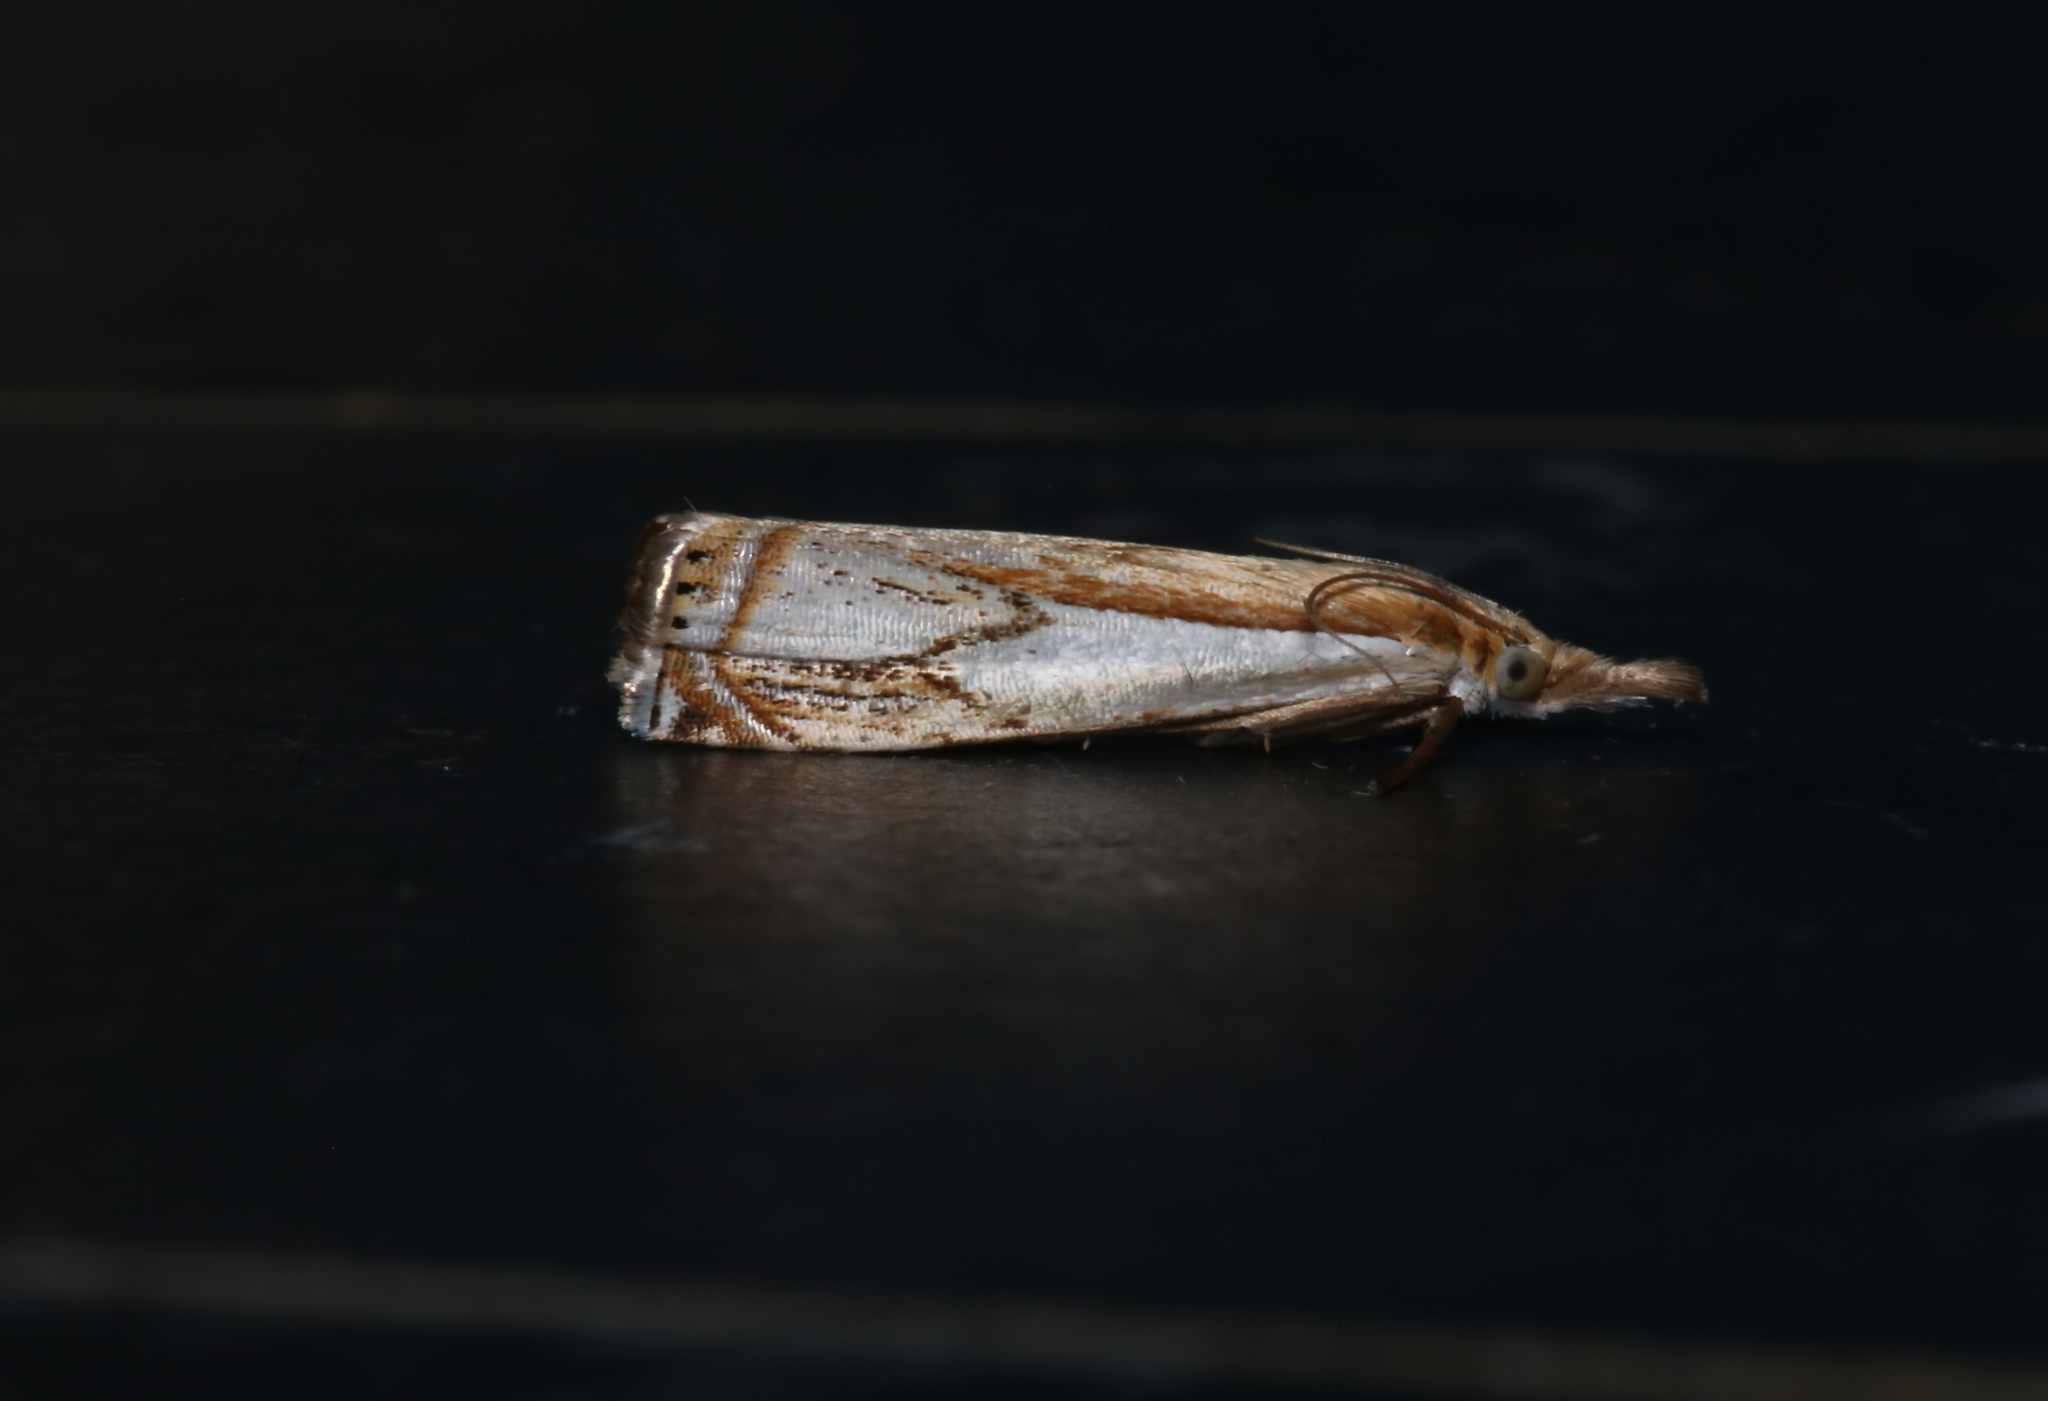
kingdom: Animalia
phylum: Arthropoda
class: Insecta
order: Lepidoptera
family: Crambidae
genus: Crambus
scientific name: Crambus agitatellus
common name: Double-banded grass-veneer
